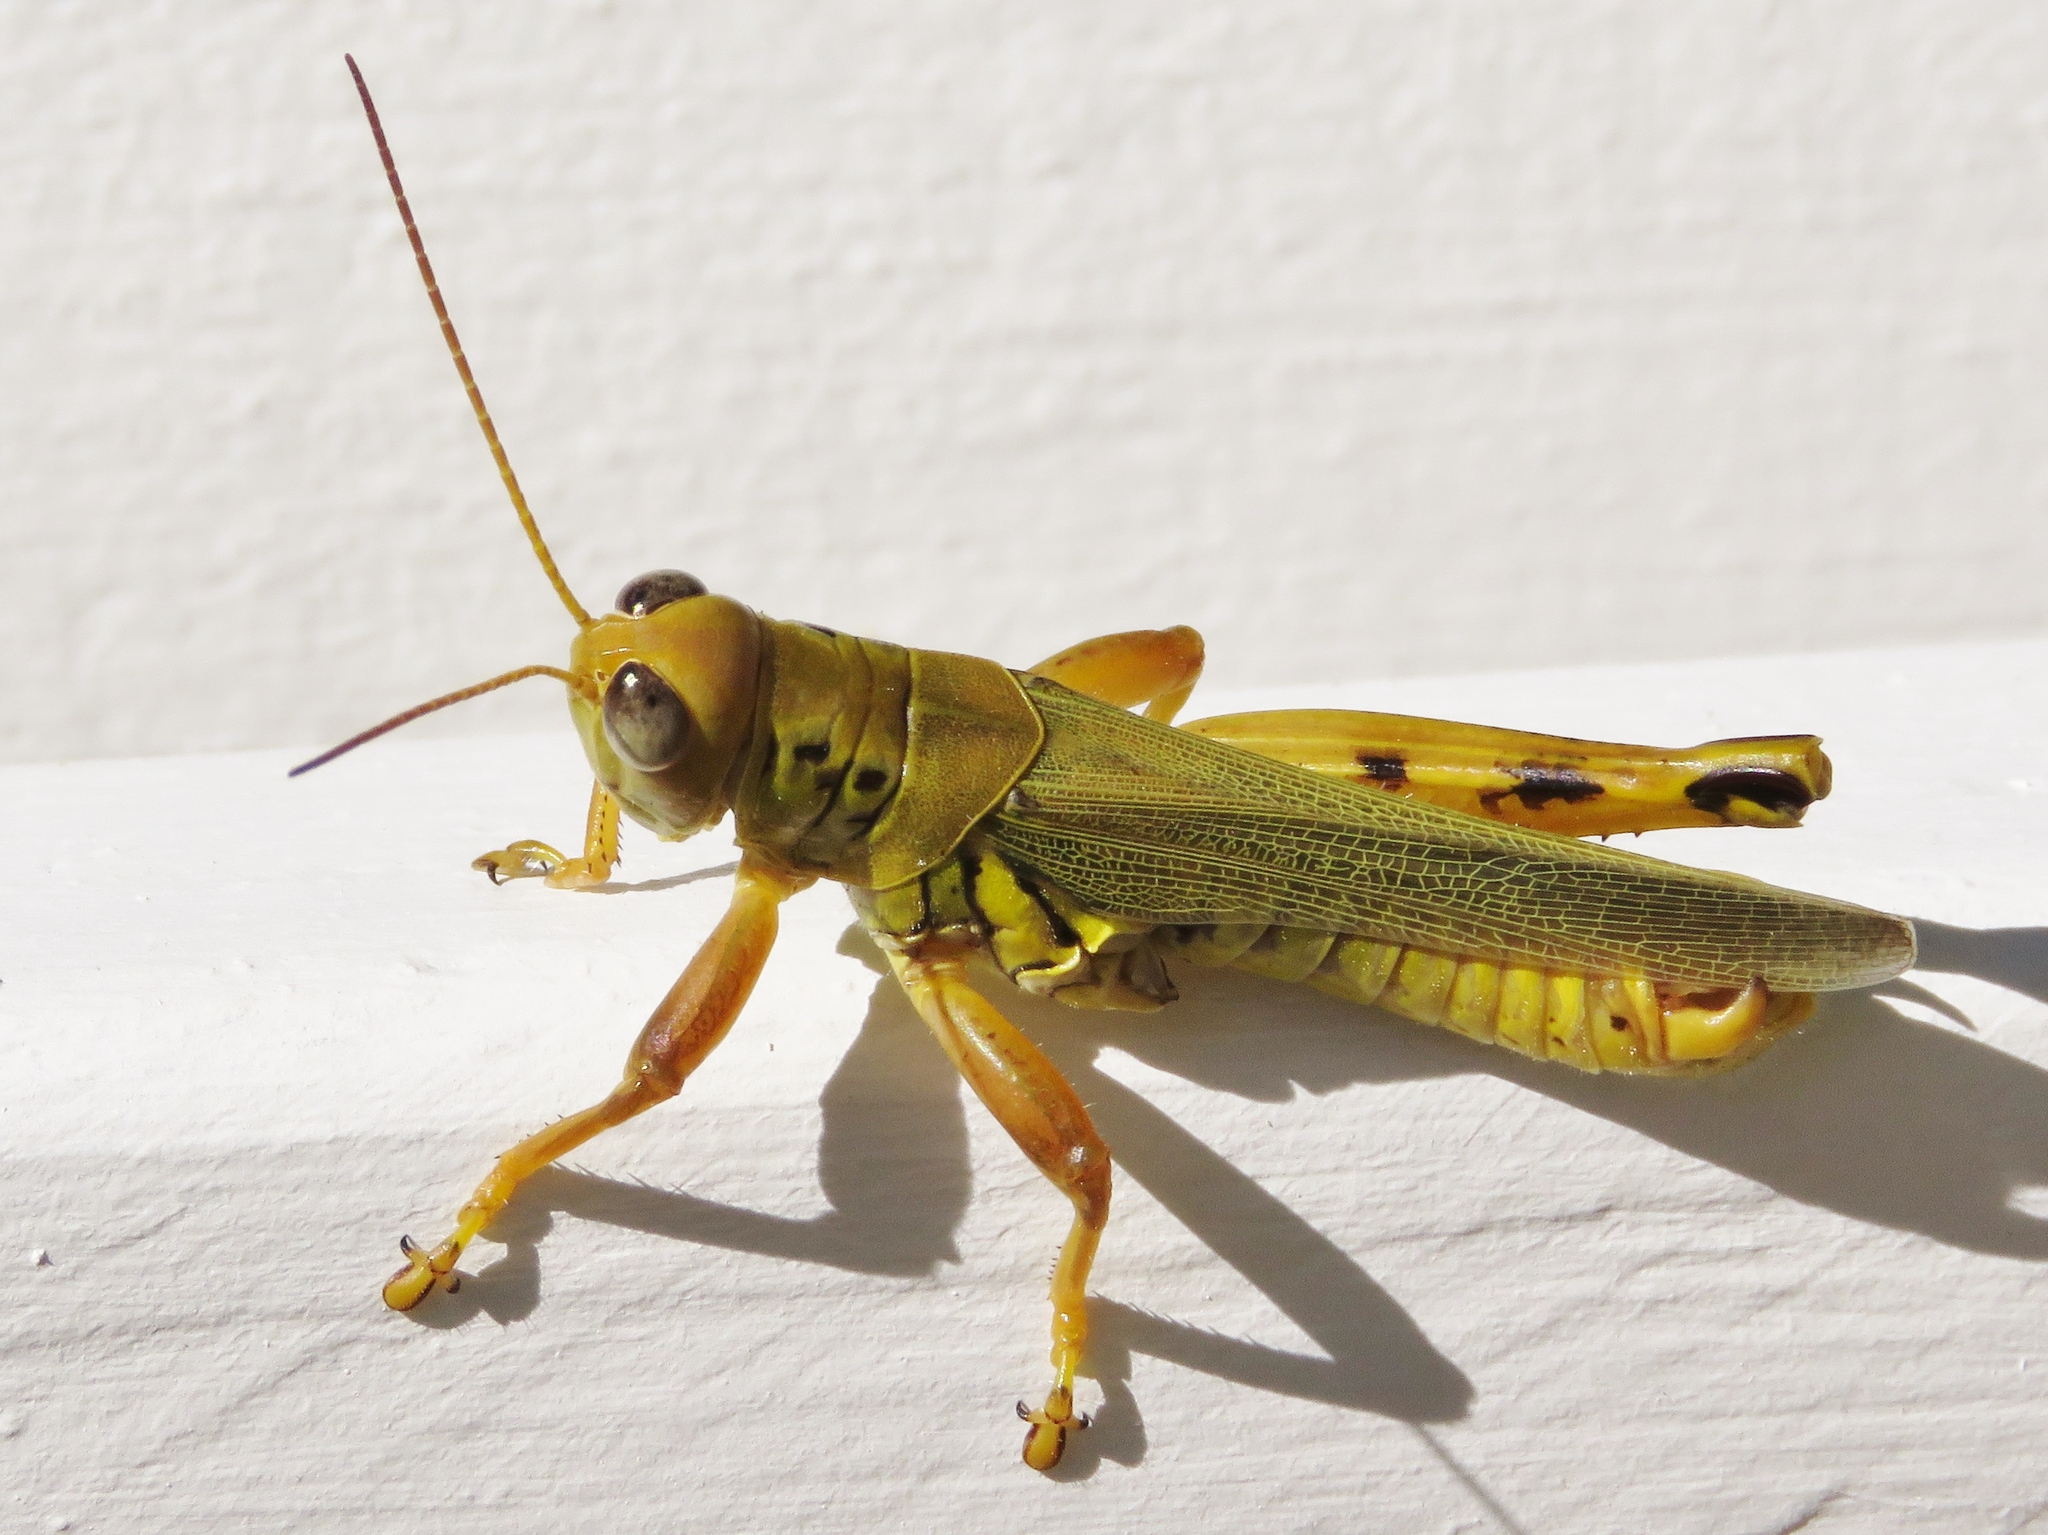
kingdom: Animalia
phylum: Arthropoda
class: Insecta
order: Orthoptera
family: Acrididae
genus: Melanoplus
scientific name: Melanoplus differentialis
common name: Differential grasshopper
